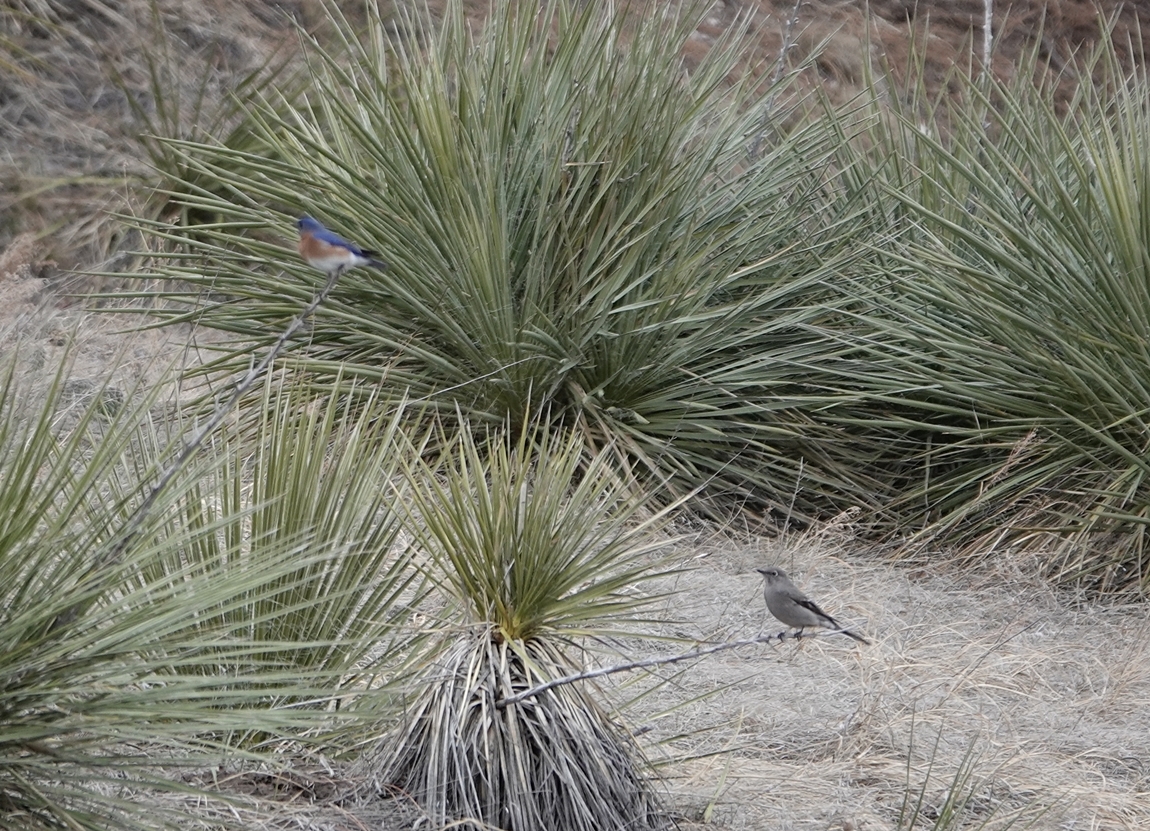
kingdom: Animalia
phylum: Chordata
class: Aves
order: Passeriformes
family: Turdidae
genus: Myadestes
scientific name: Myadestes townsendi
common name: Townsend's solitaire
